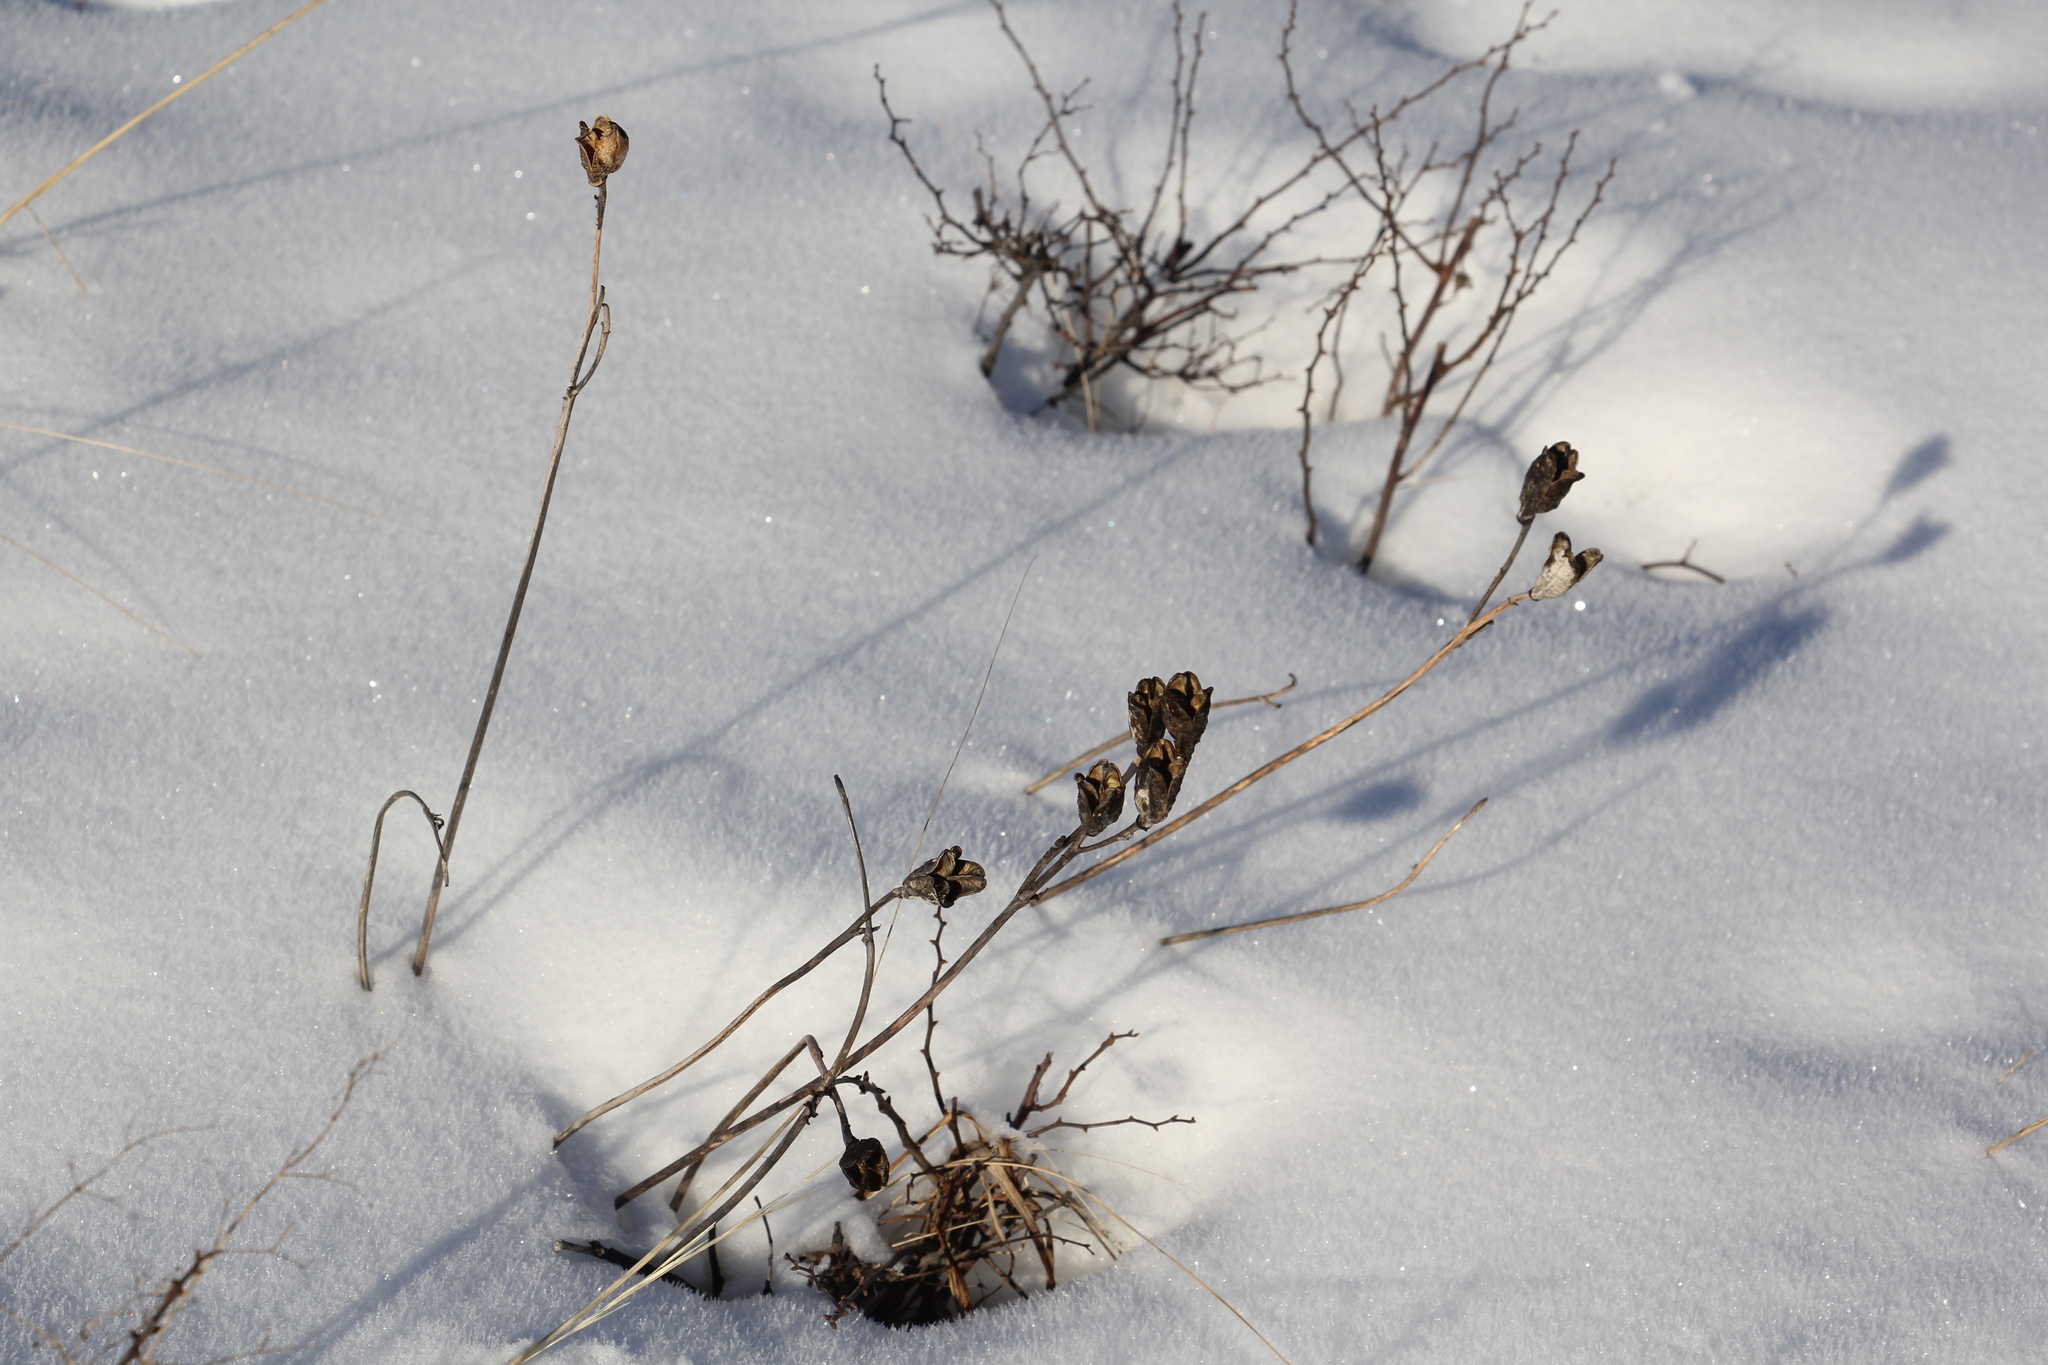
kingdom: Plantae
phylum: Tracheophyta
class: Liliopsida
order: Asparagales
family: Asphodelaceae
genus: Hemerocallis
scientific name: Hemerocallis minor
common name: Small daylily
